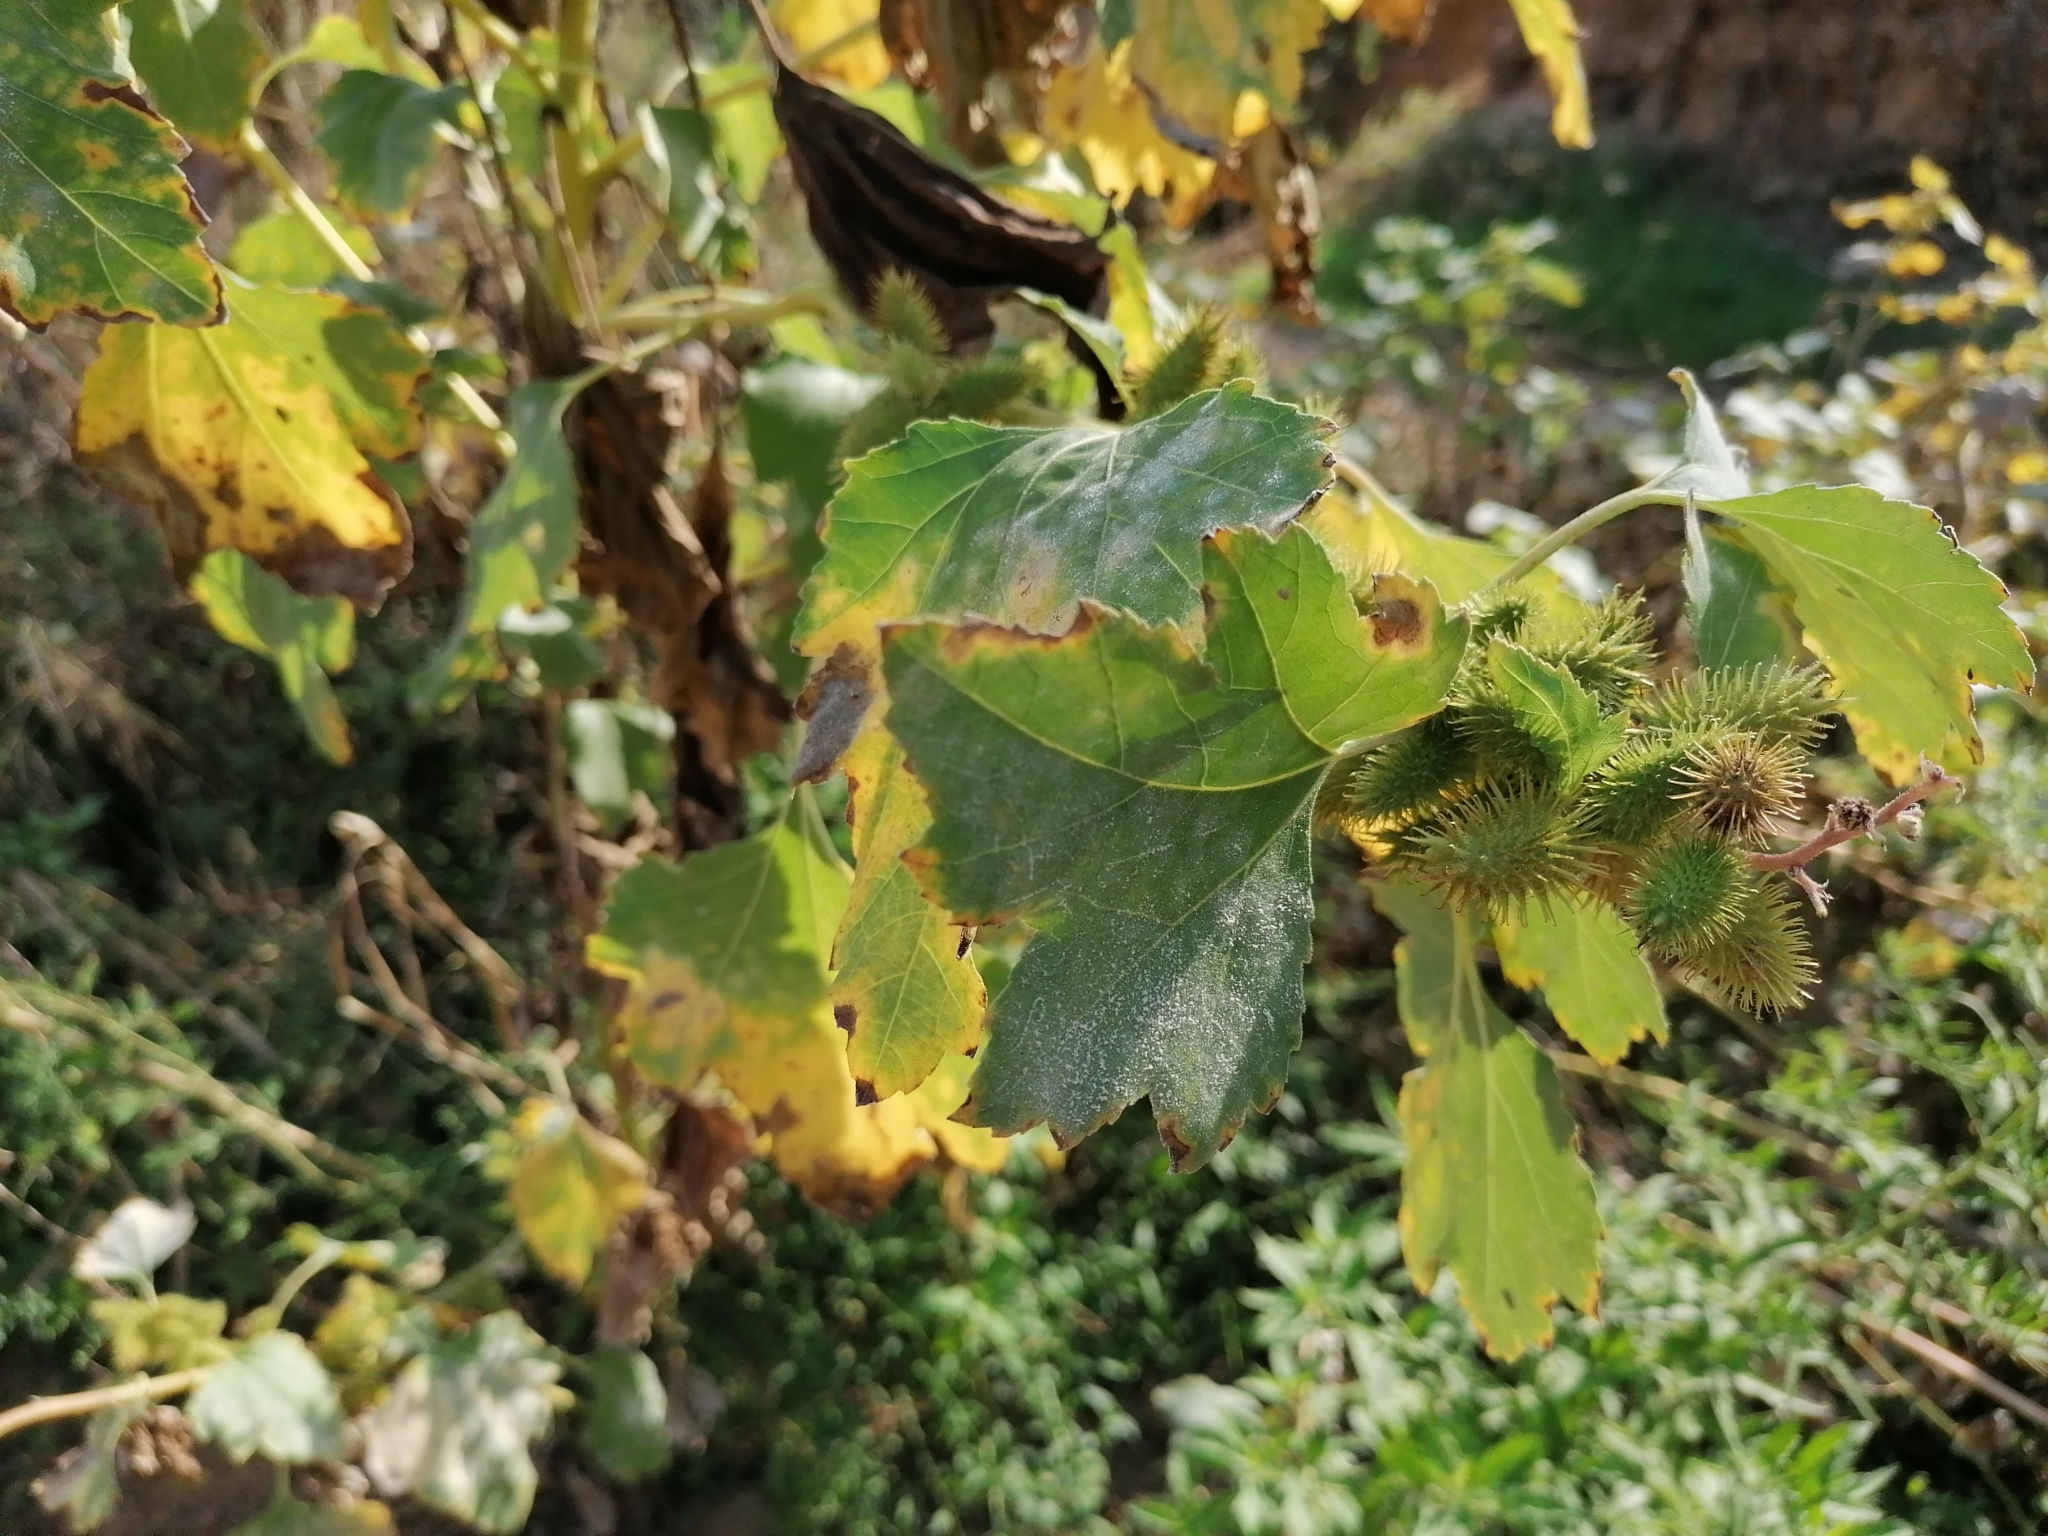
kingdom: Plantae
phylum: Tracheophyta
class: Magnoliopsida
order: Asterales
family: Asteraceae
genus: Xanthium
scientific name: Xanthium strumarium
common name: Rough cocklebur
